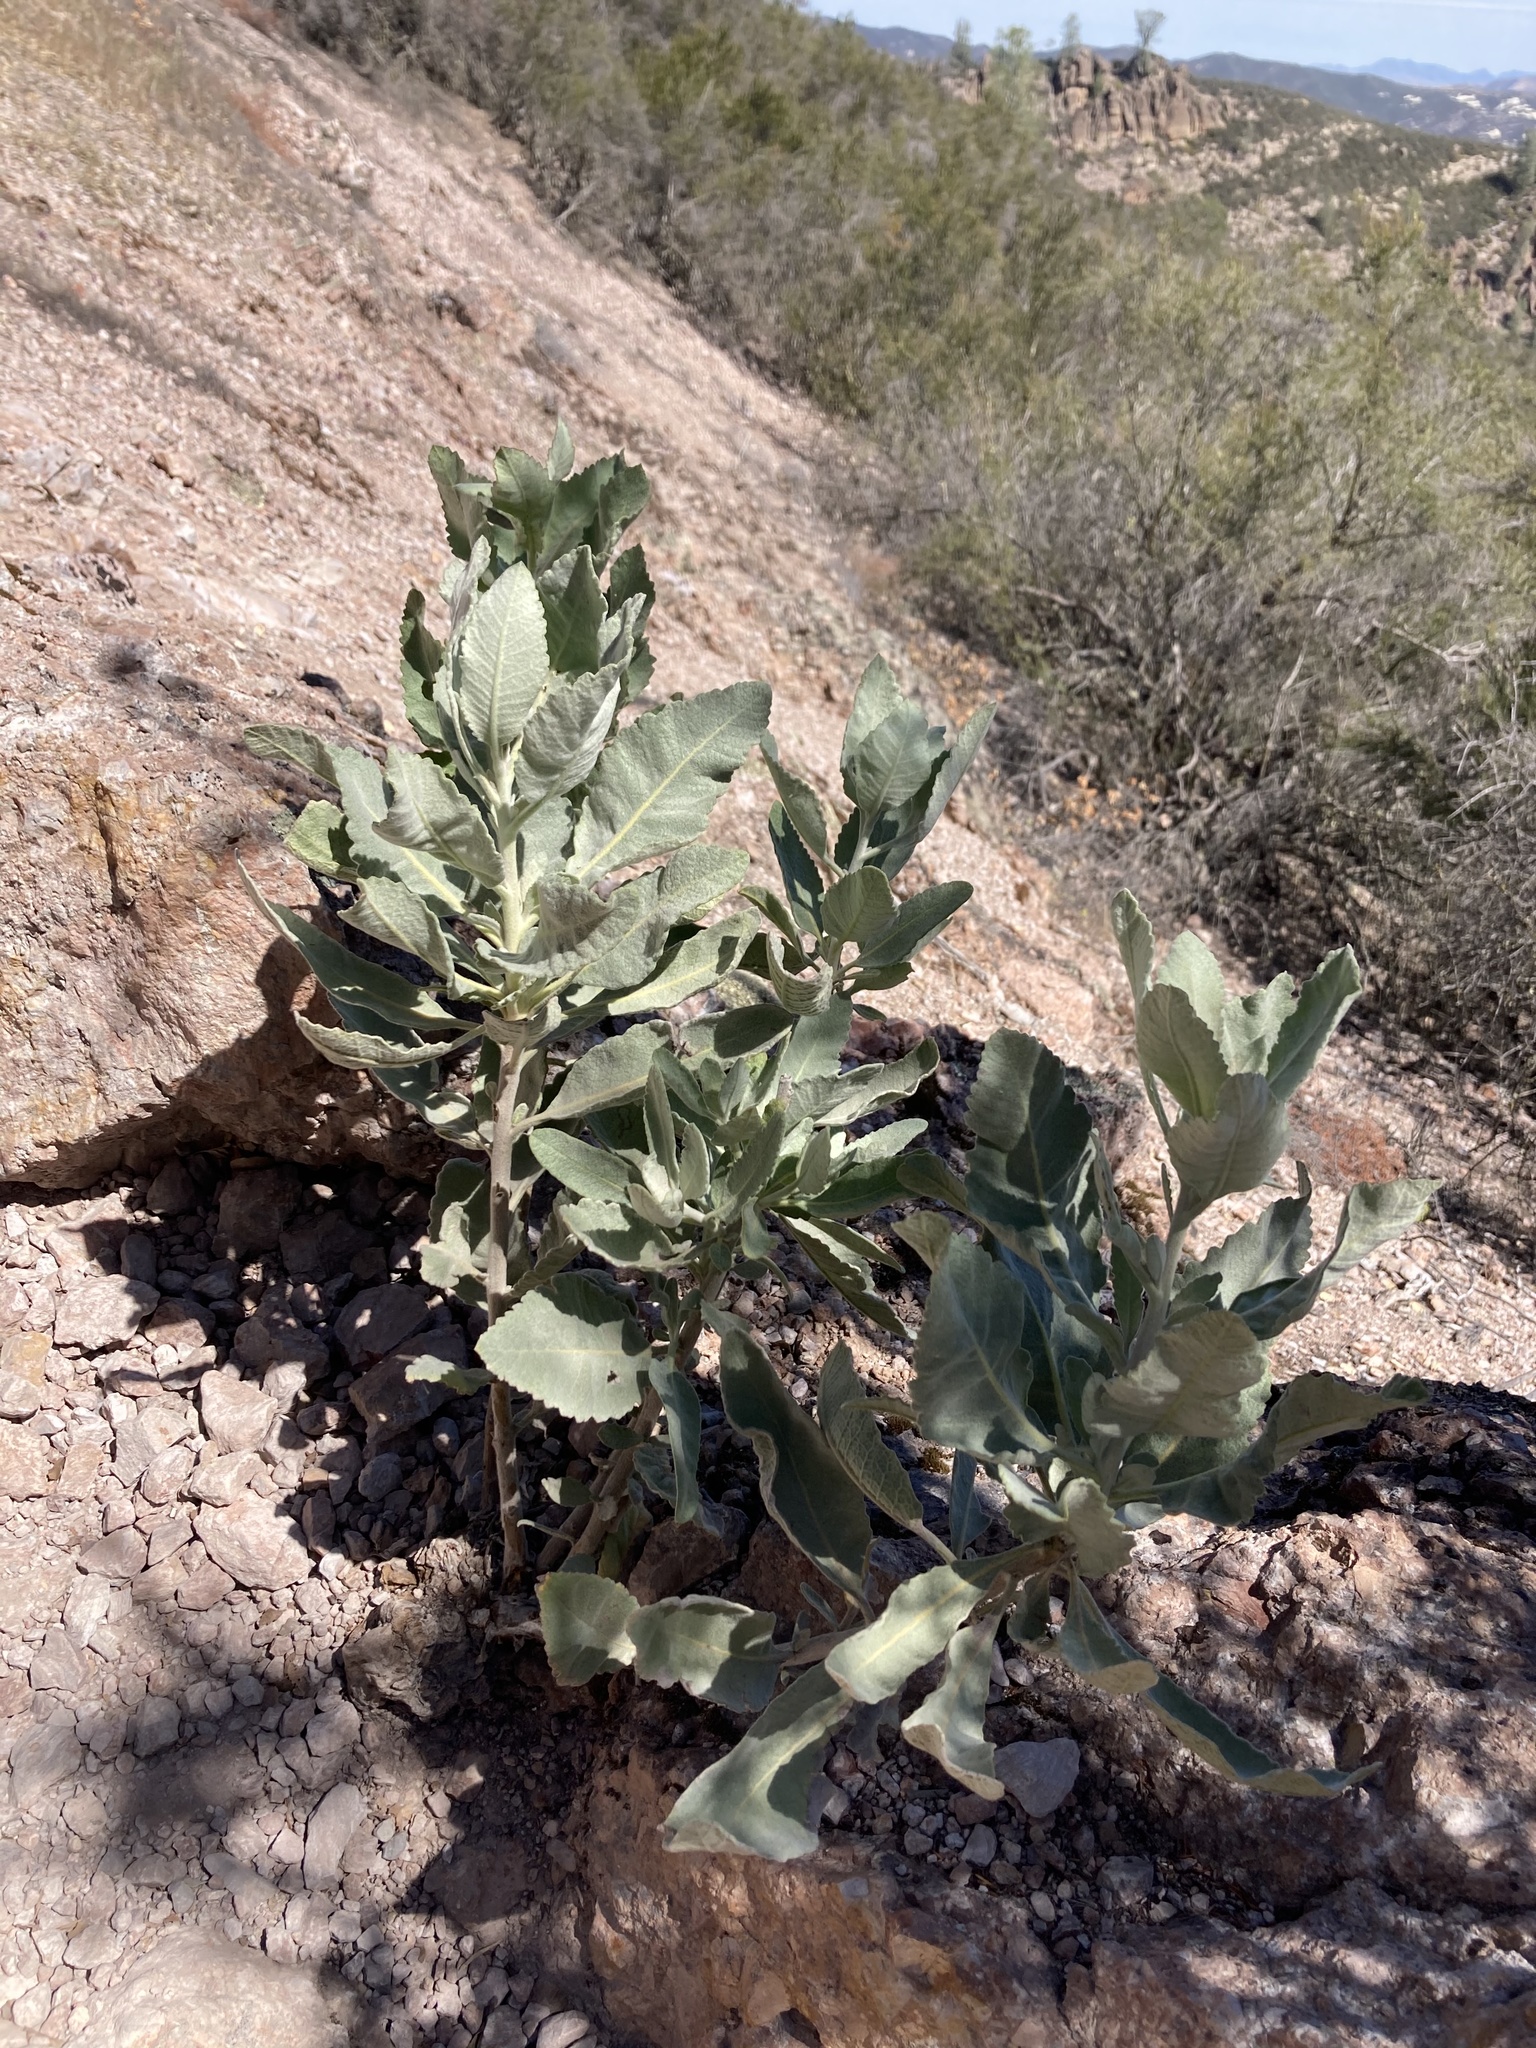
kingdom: Plantae
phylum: Tracheophyta
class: Magnoliopsida
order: Boraginales
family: Namaceae
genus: Eriodictyon
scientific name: Eriodictyon tomentosum
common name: Woolly yerba-santa
